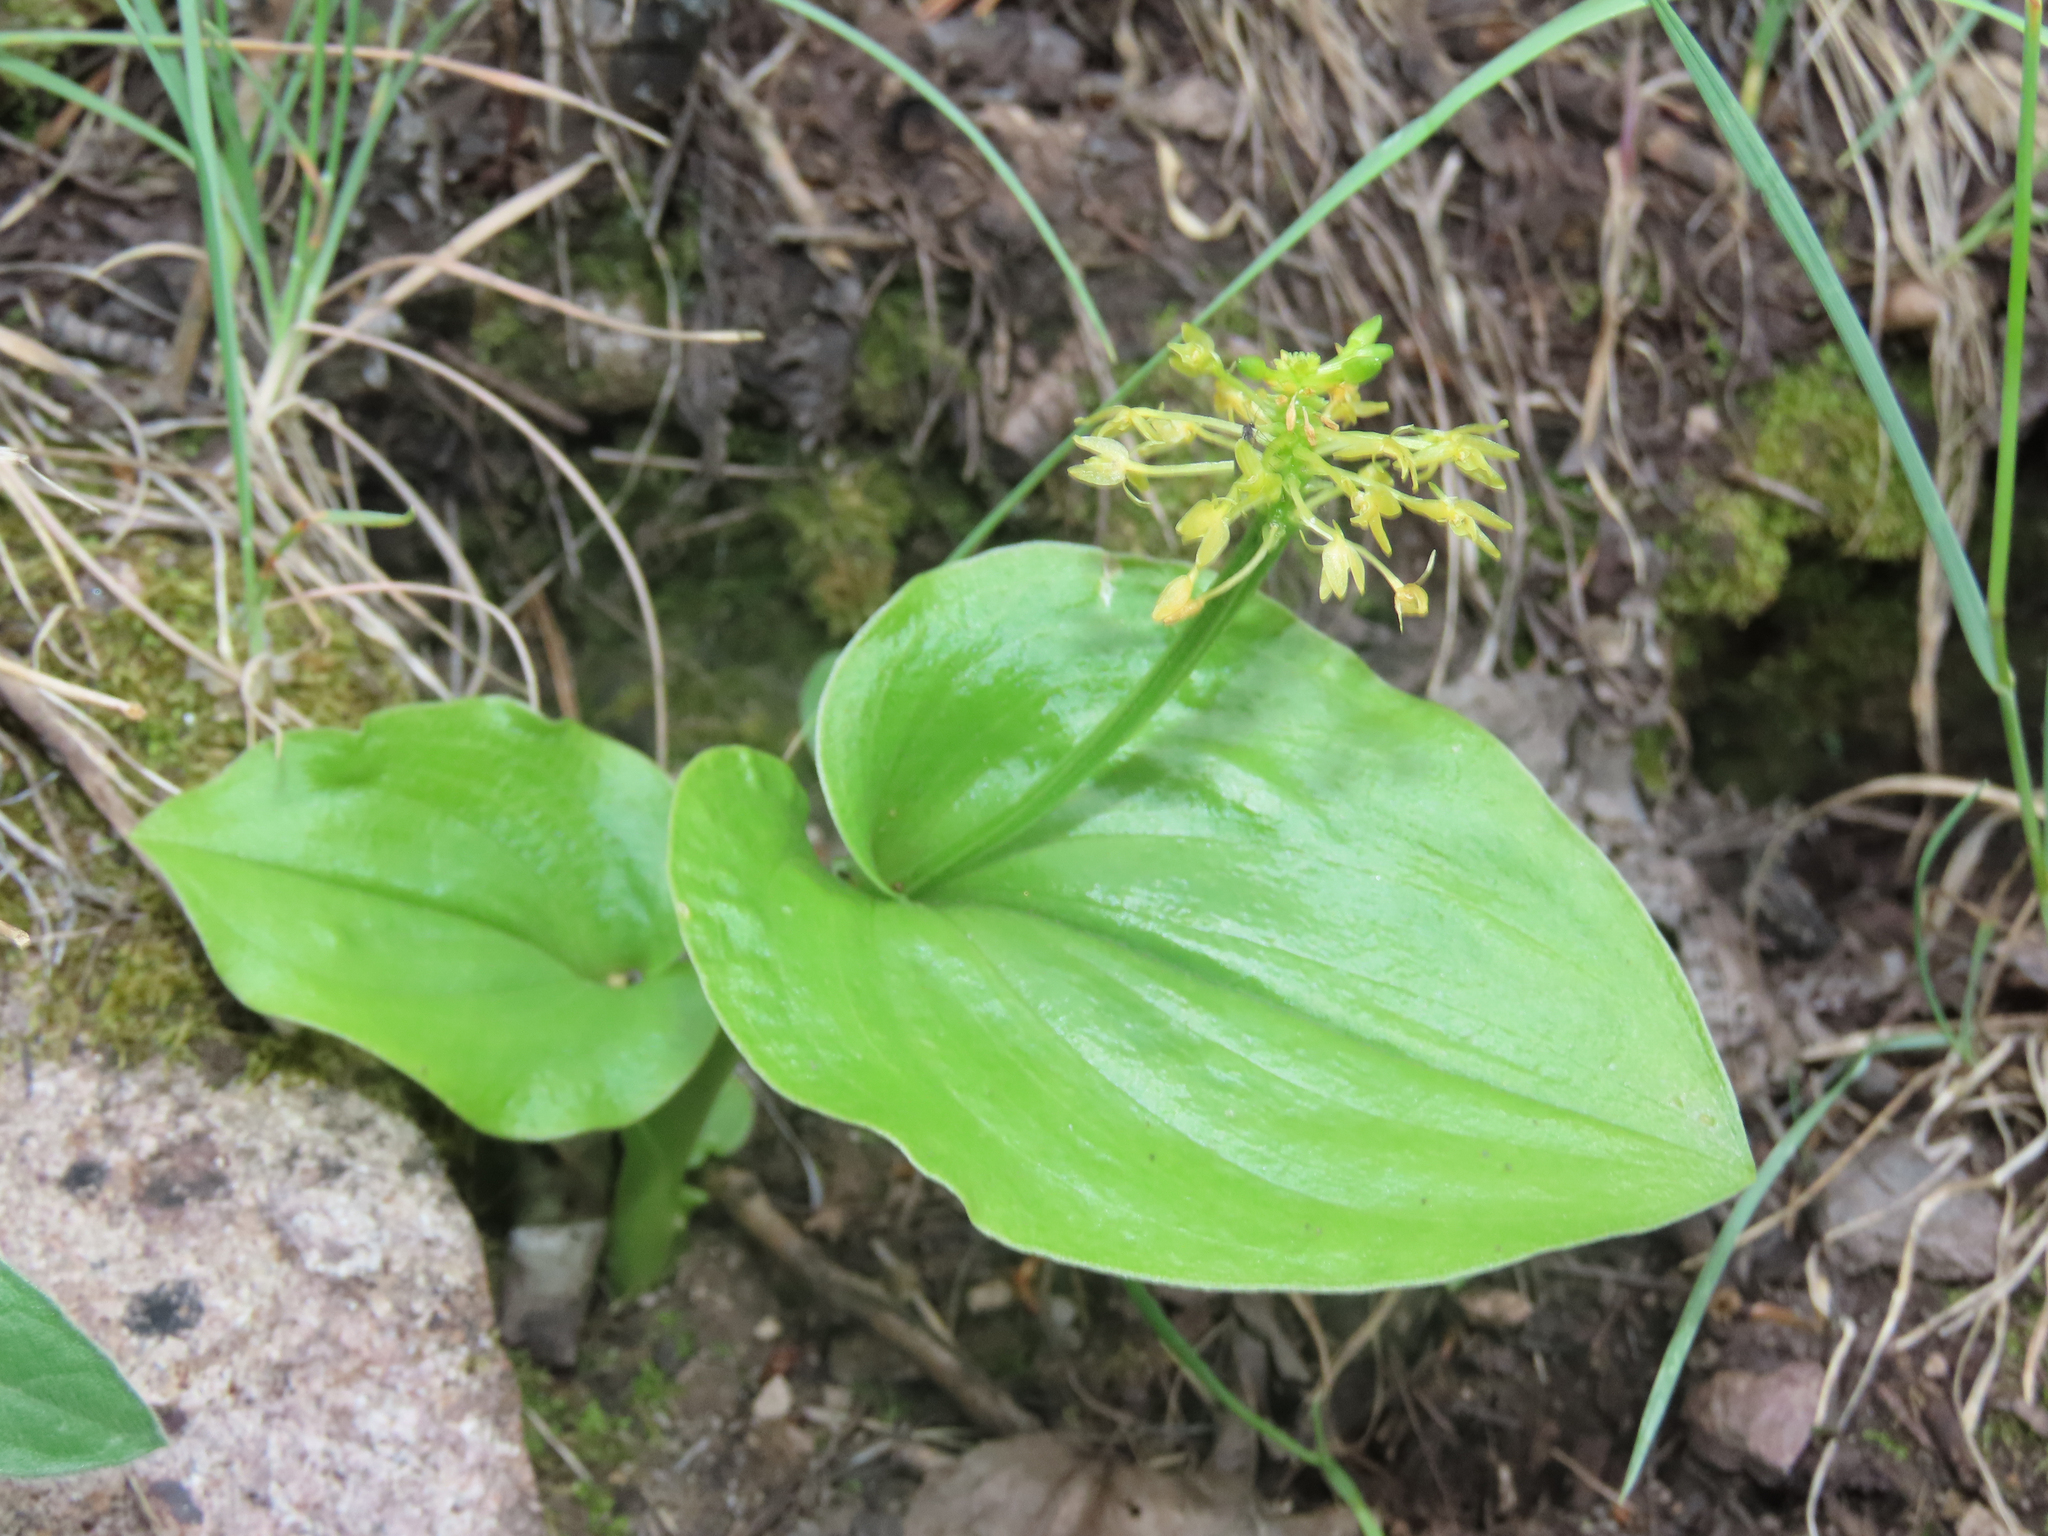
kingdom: Plantae
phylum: Tracheophyta
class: Liliopsida
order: Asparagales
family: Orchidaceae
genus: Malaxis
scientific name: Malaxis brachystachys
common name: Huachuca adder's-mouth
